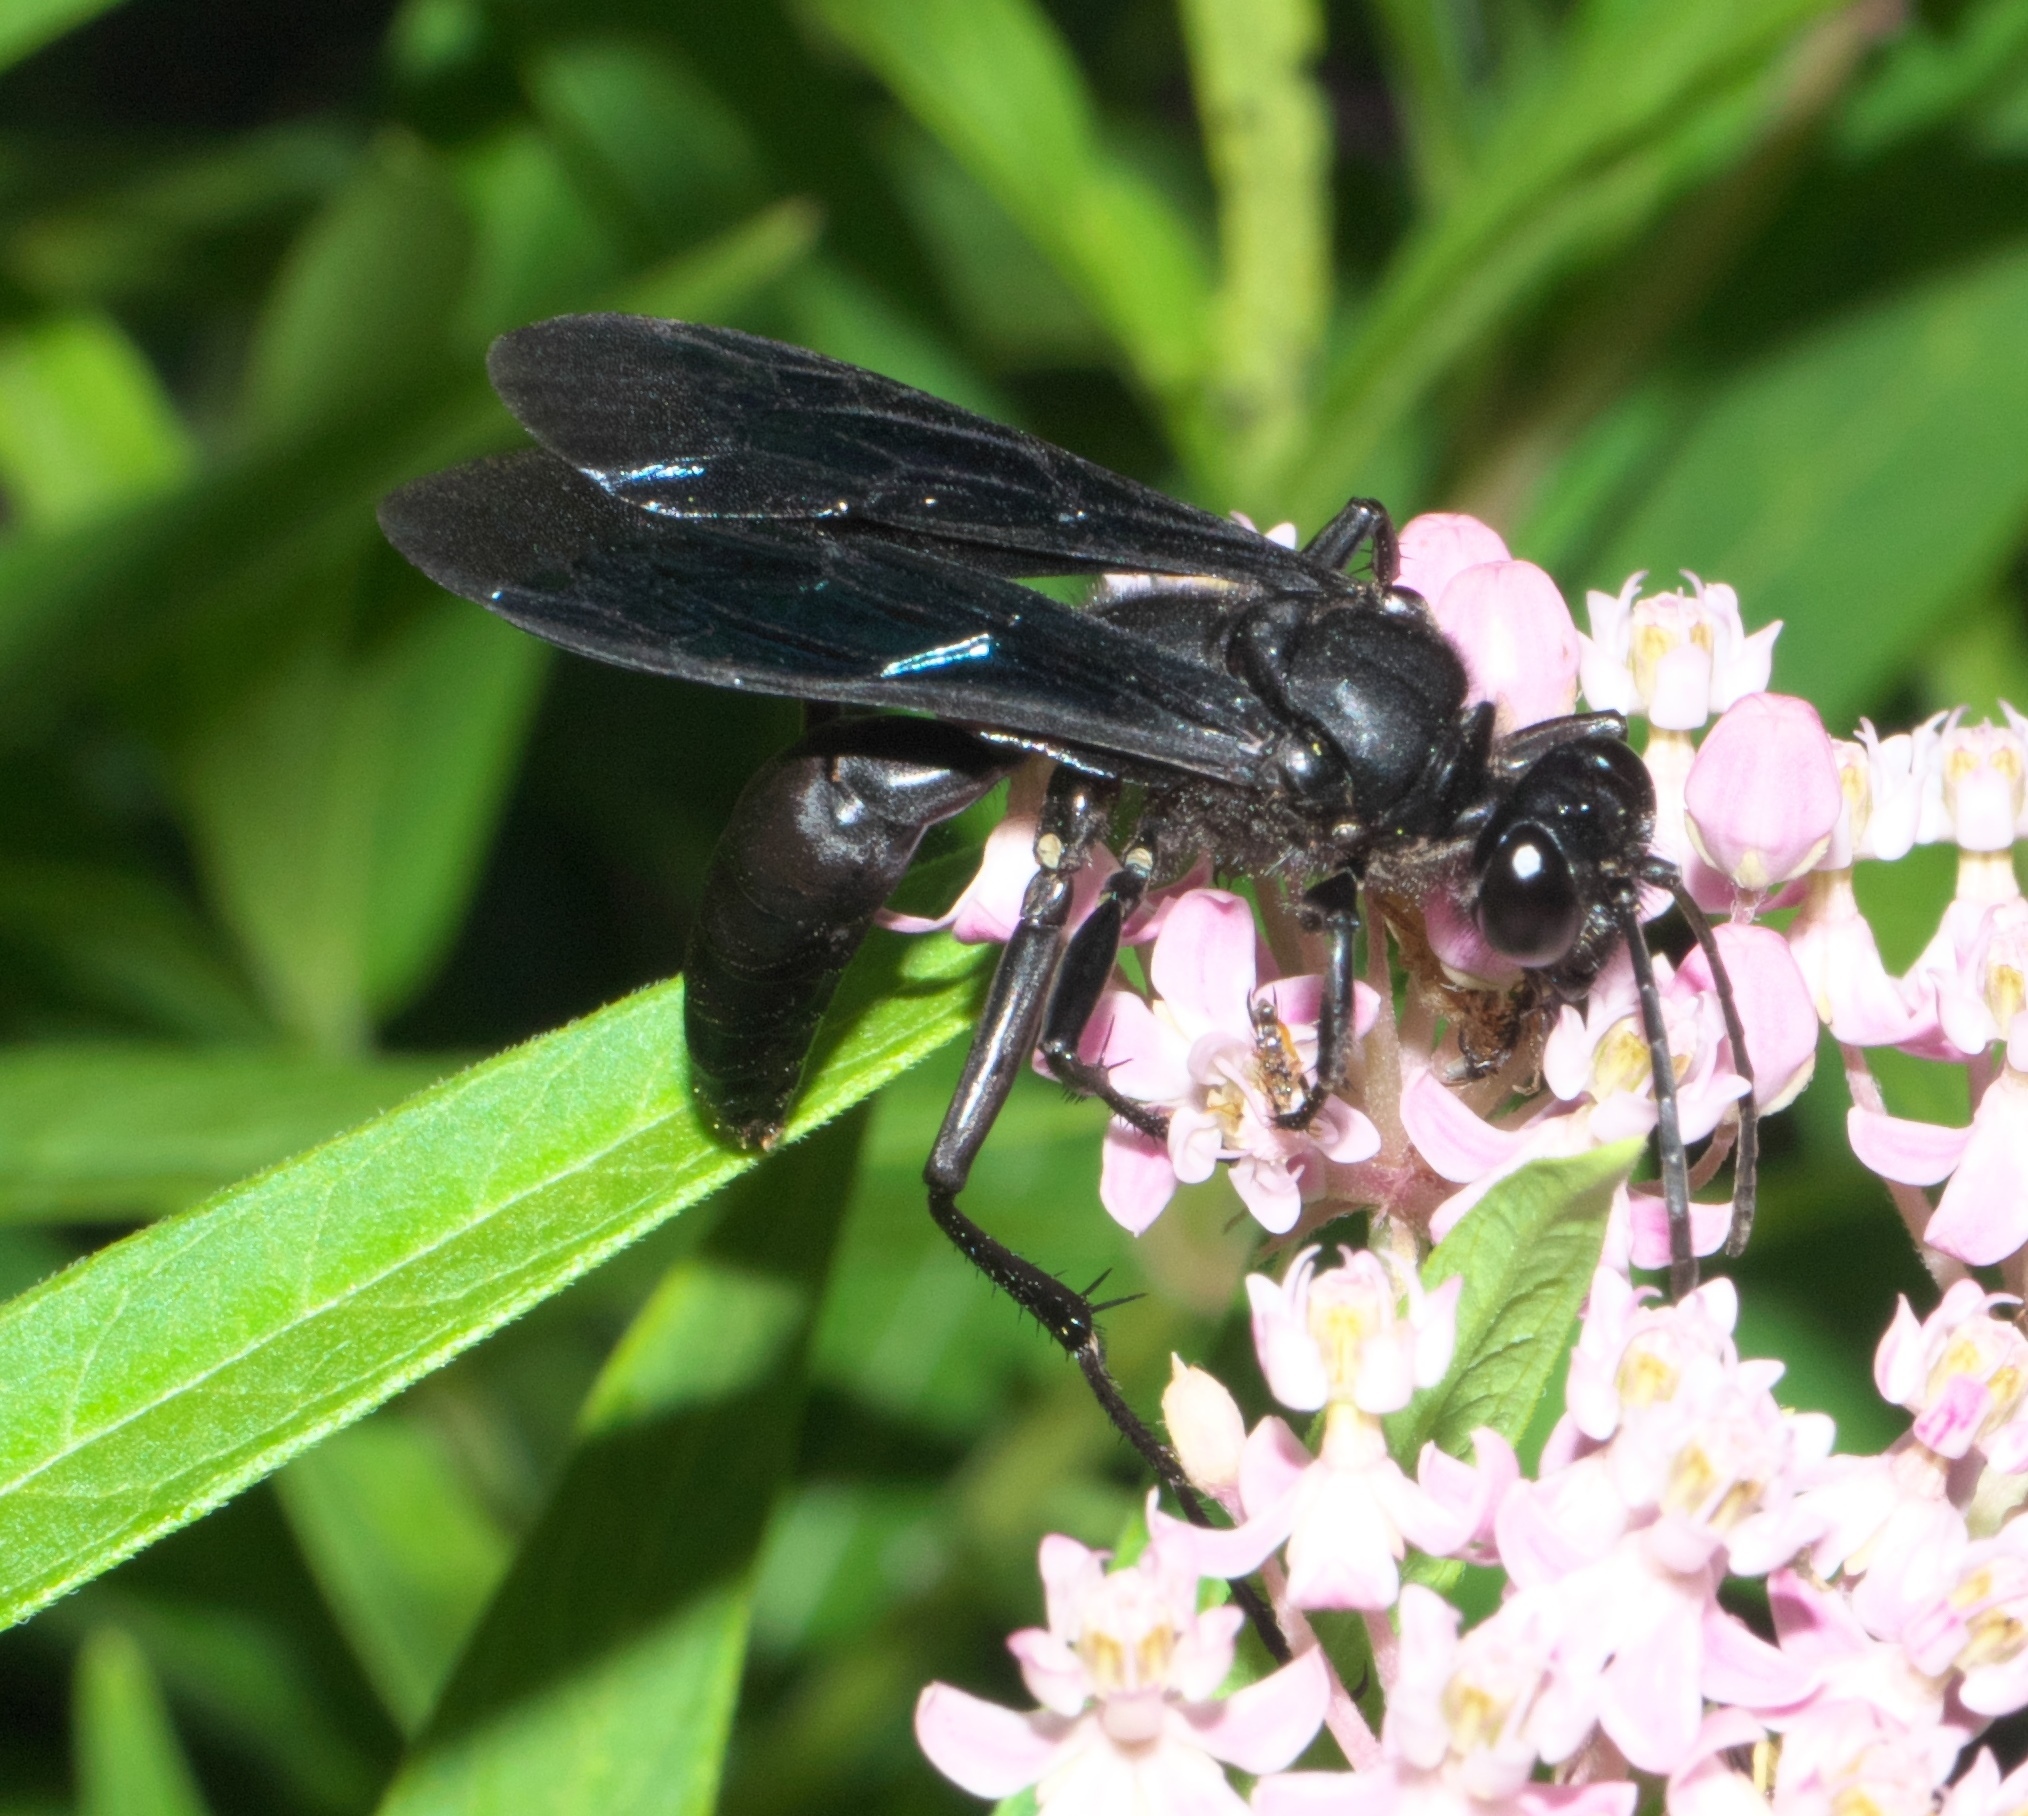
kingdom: Animalia
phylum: Arthropoda
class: Insecta
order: Hymenoptera
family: Sphecidae
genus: Sphex
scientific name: Sphex pensylvanicus
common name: Great black digger wasp
